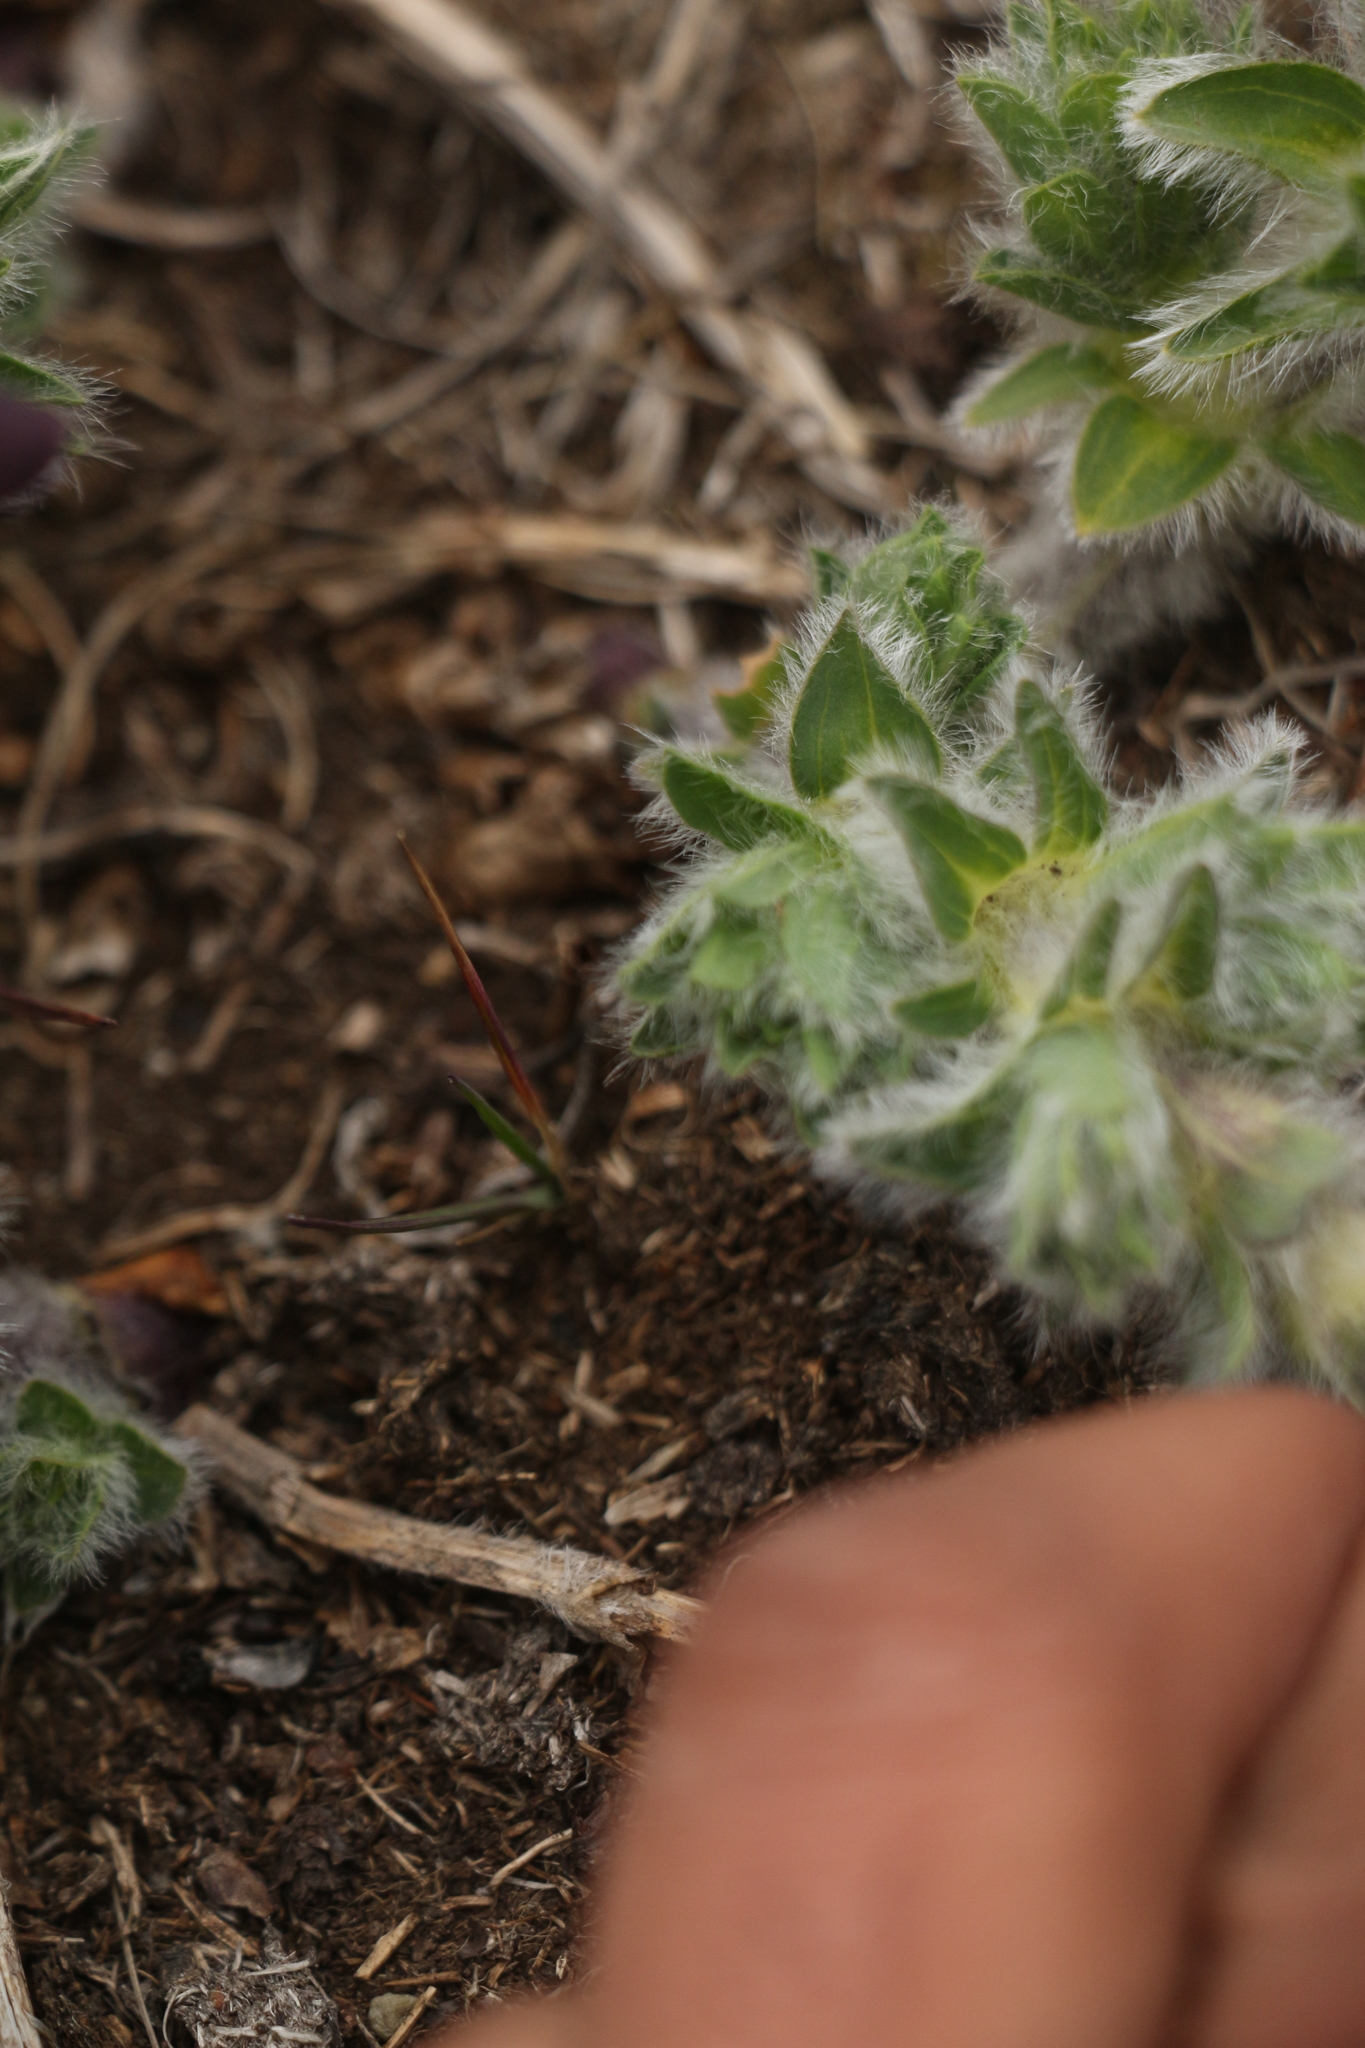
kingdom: Plantae
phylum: Tracheophyta
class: Magnoliopsida
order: Fabales
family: Fabaceae
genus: Thermopsis
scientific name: Thermopsis barbata
